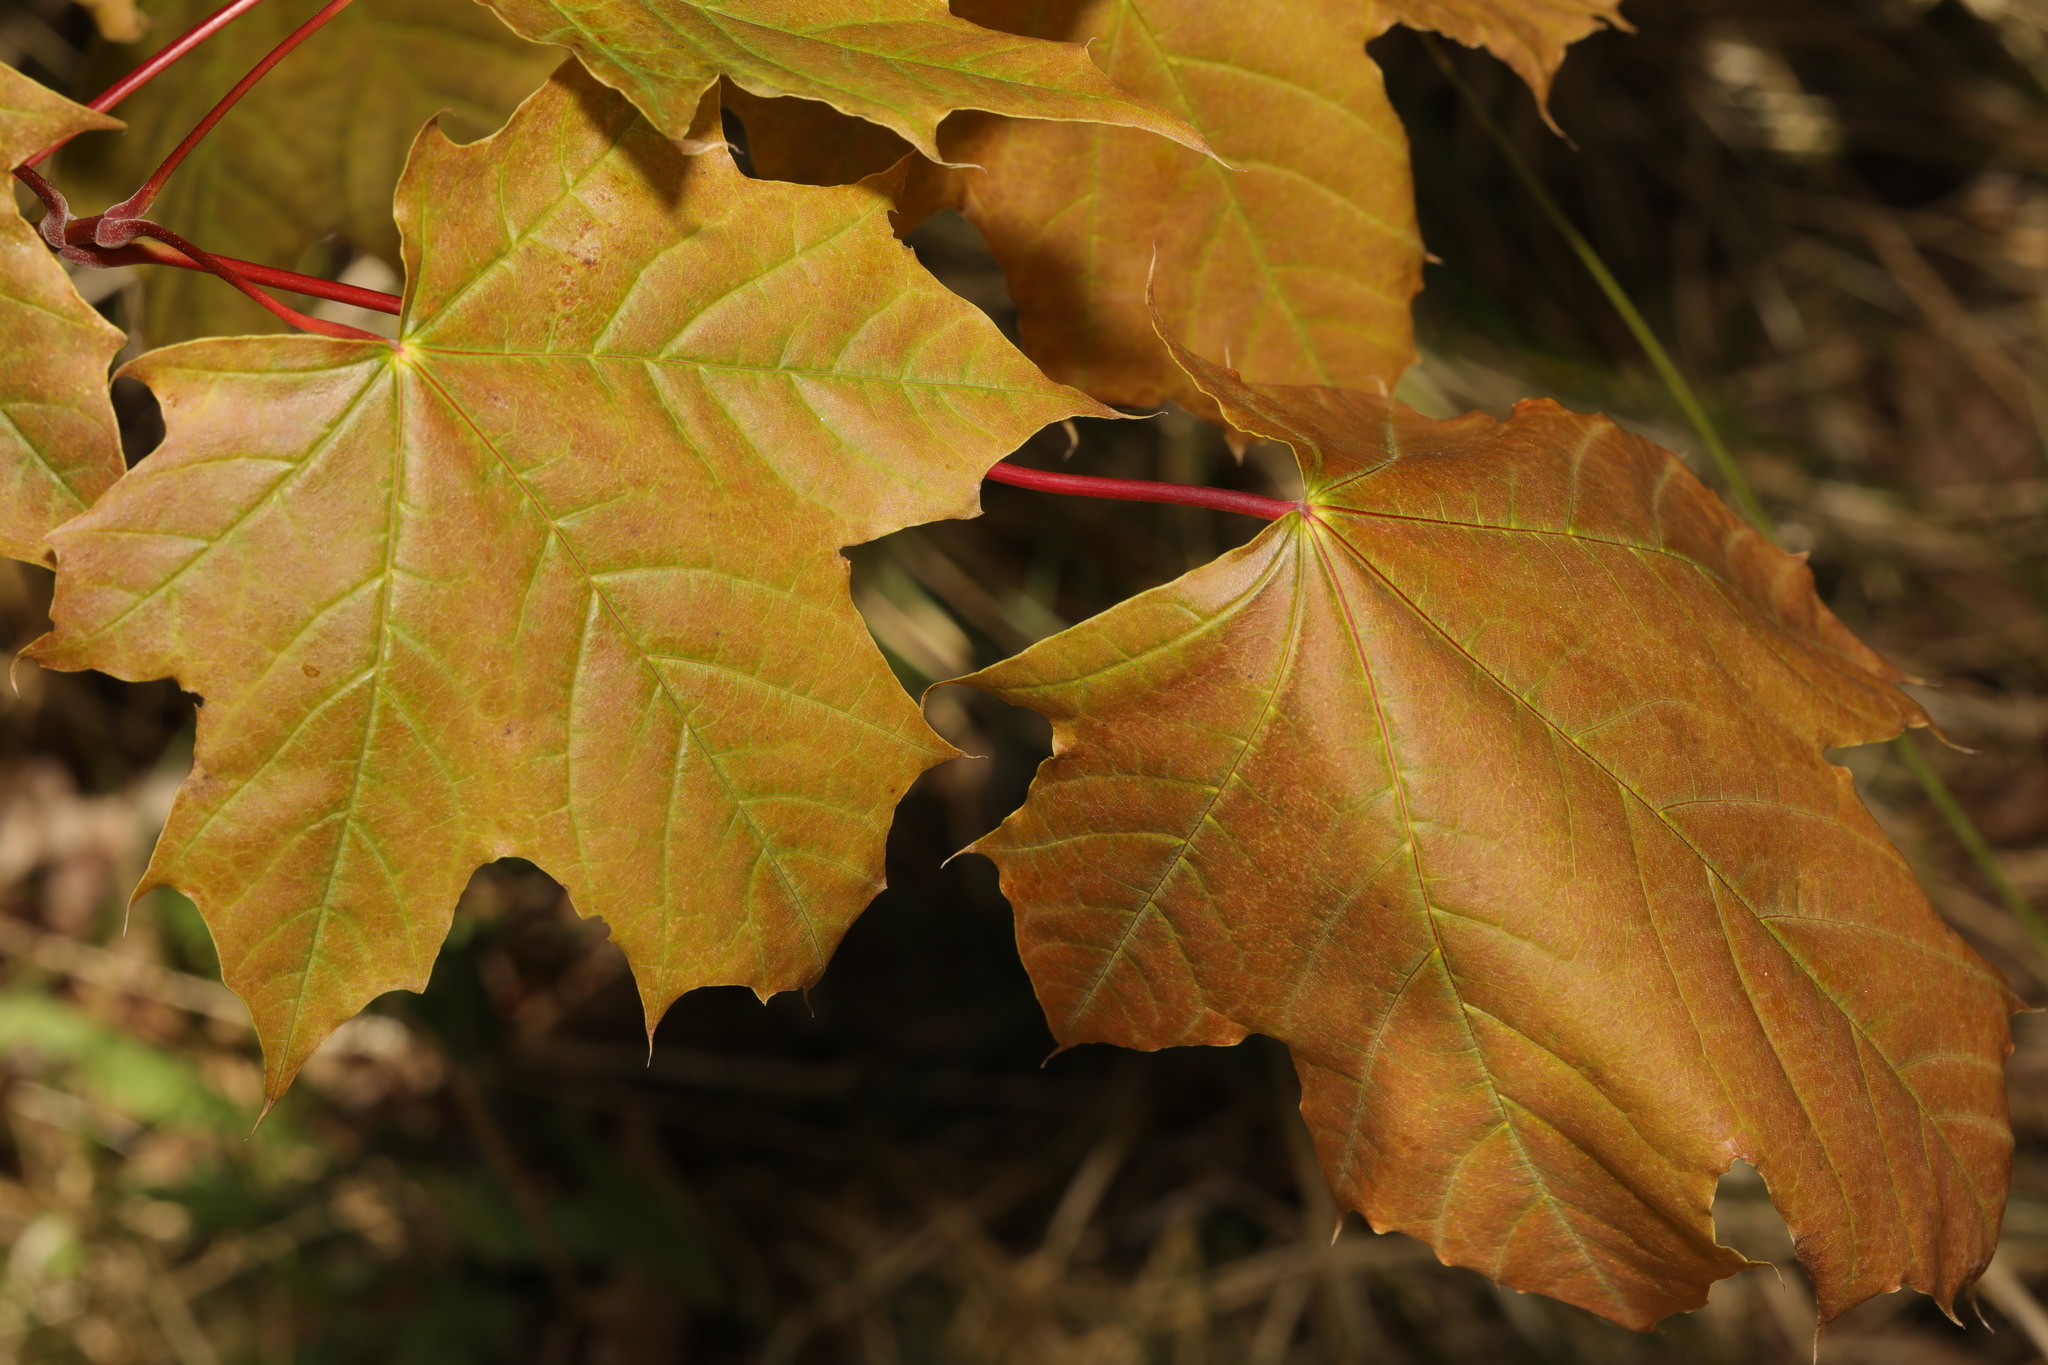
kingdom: Plantae
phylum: Tracheophyta
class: Magnoliopsida
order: Sapindales
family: Sapindaceae
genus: Acer
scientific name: Acer platanoides
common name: Norway maple
